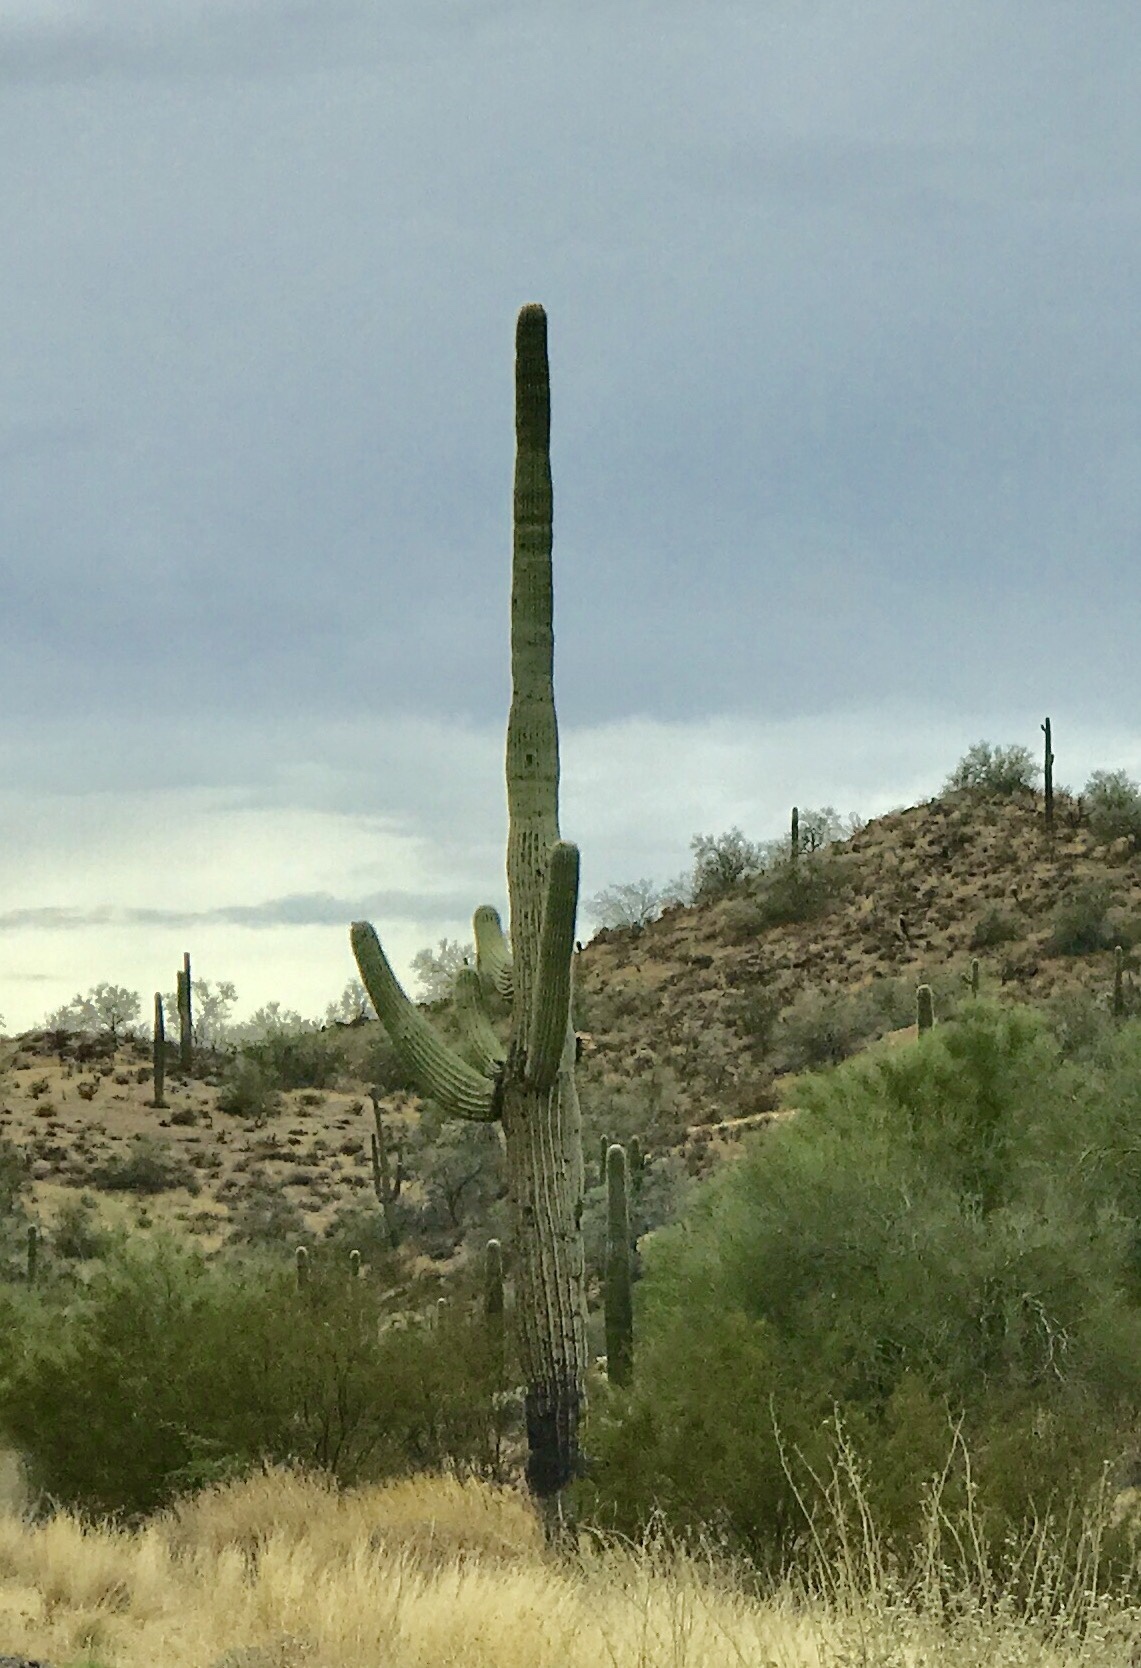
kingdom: Plantae
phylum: Tracheophyta
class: Magnoliopsida
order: Caryophyllales
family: Cactaceae
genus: Carnegiea
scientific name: Carnegiea gigantea
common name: Saguaro
